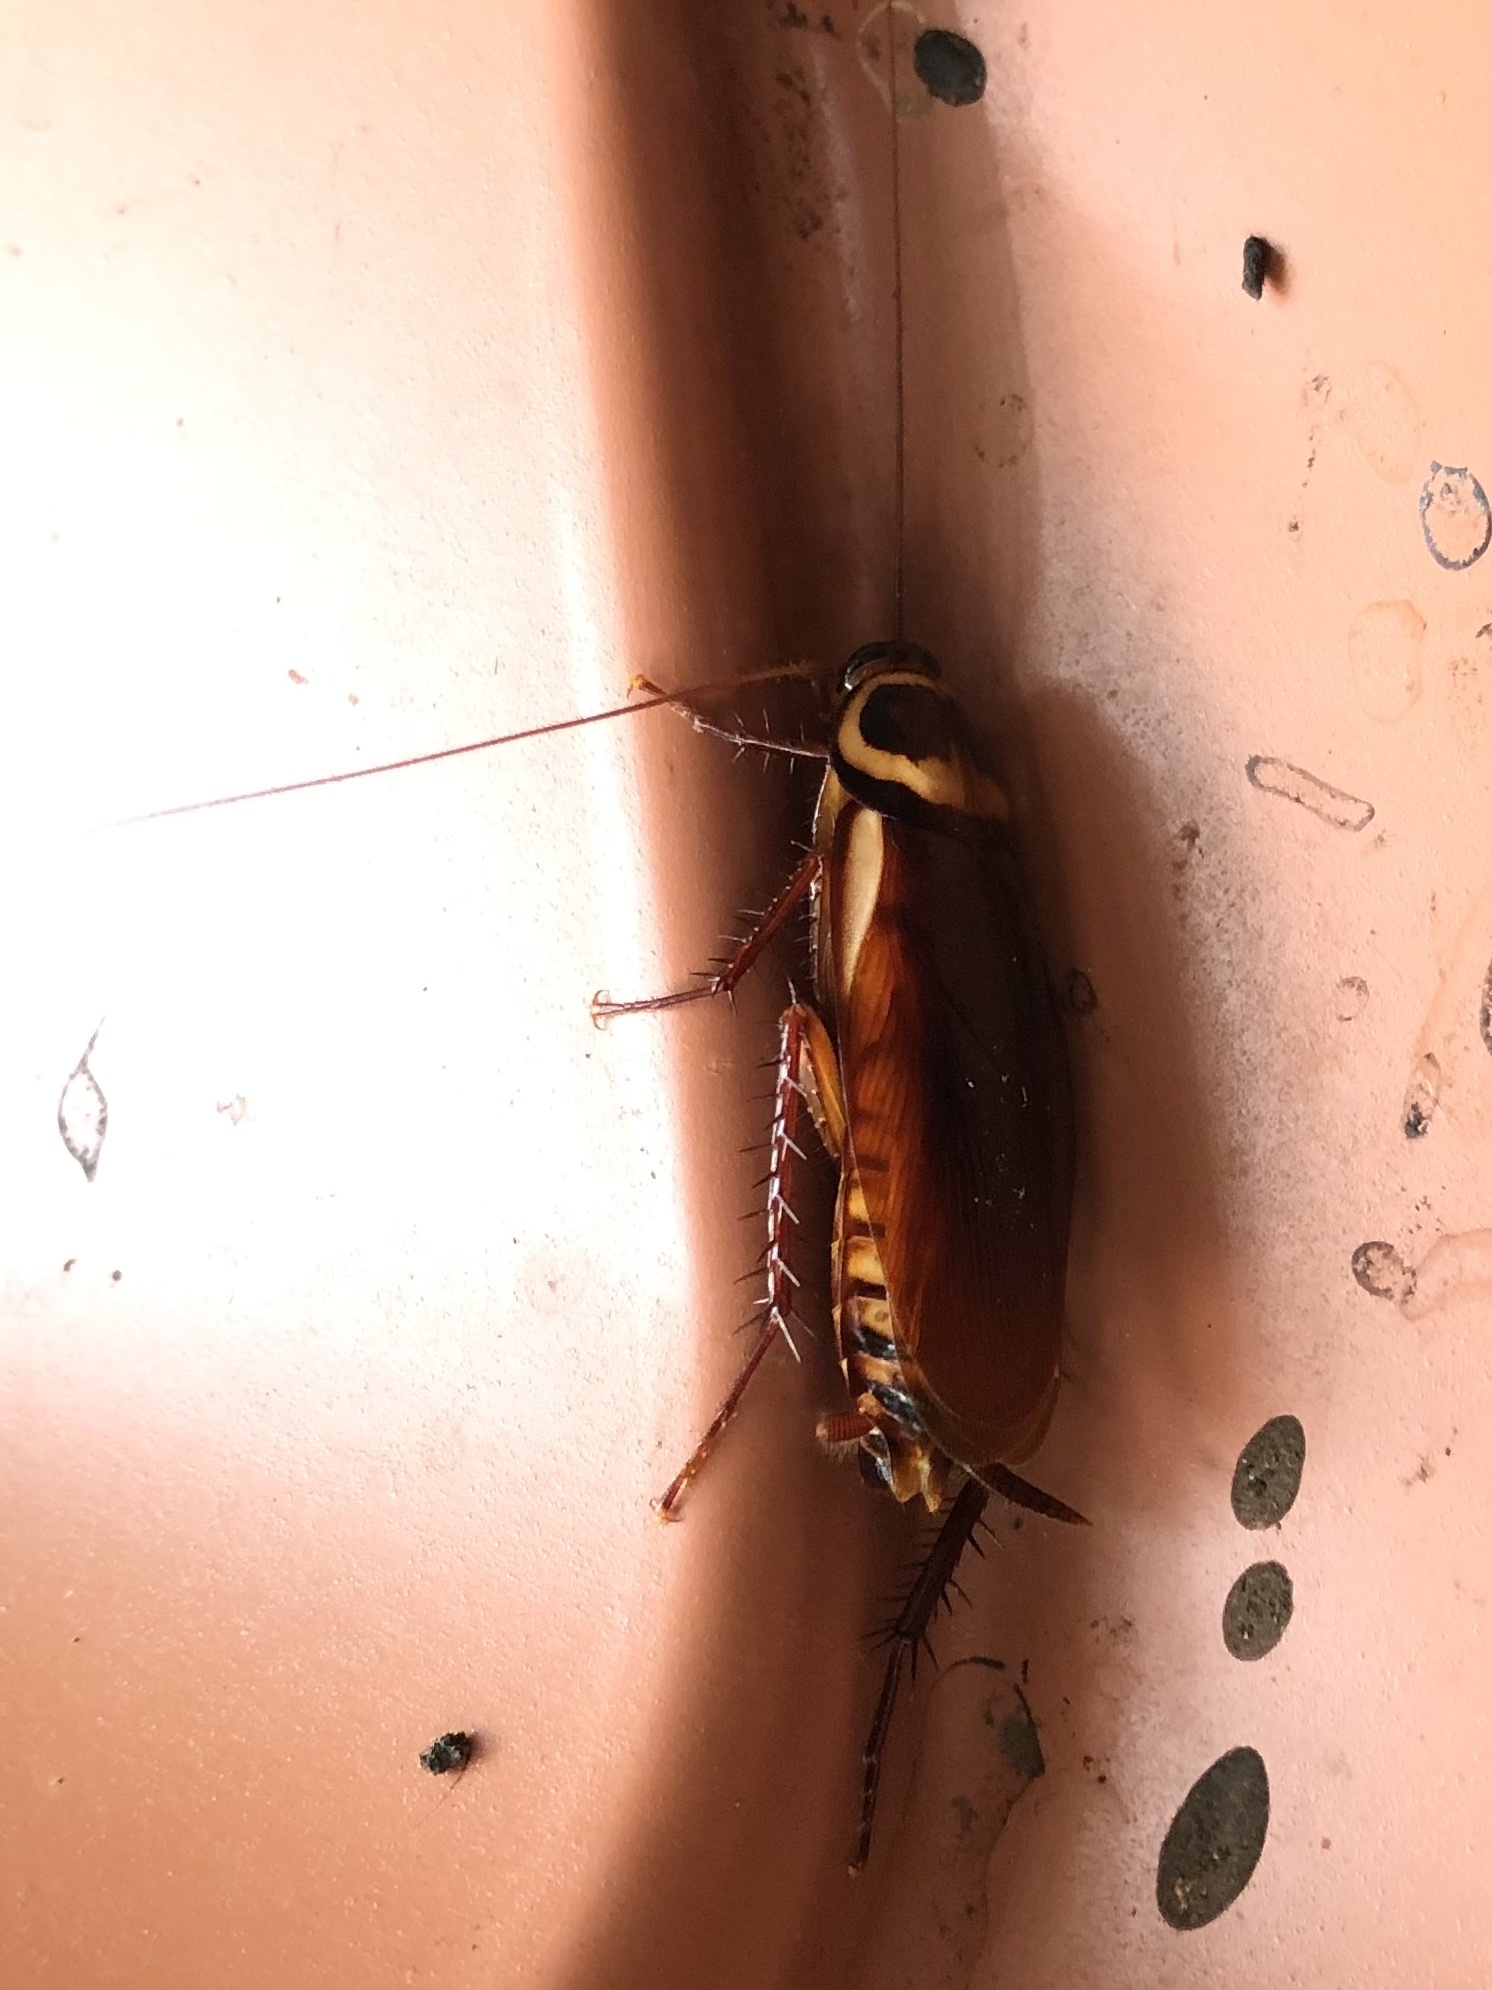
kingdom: Animalia
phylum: Arthropoda
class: Insecta
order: Blattodea
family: Blattidae
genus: Periplaneta
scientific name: Periplaneta australasiae
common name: Australian cockroach
